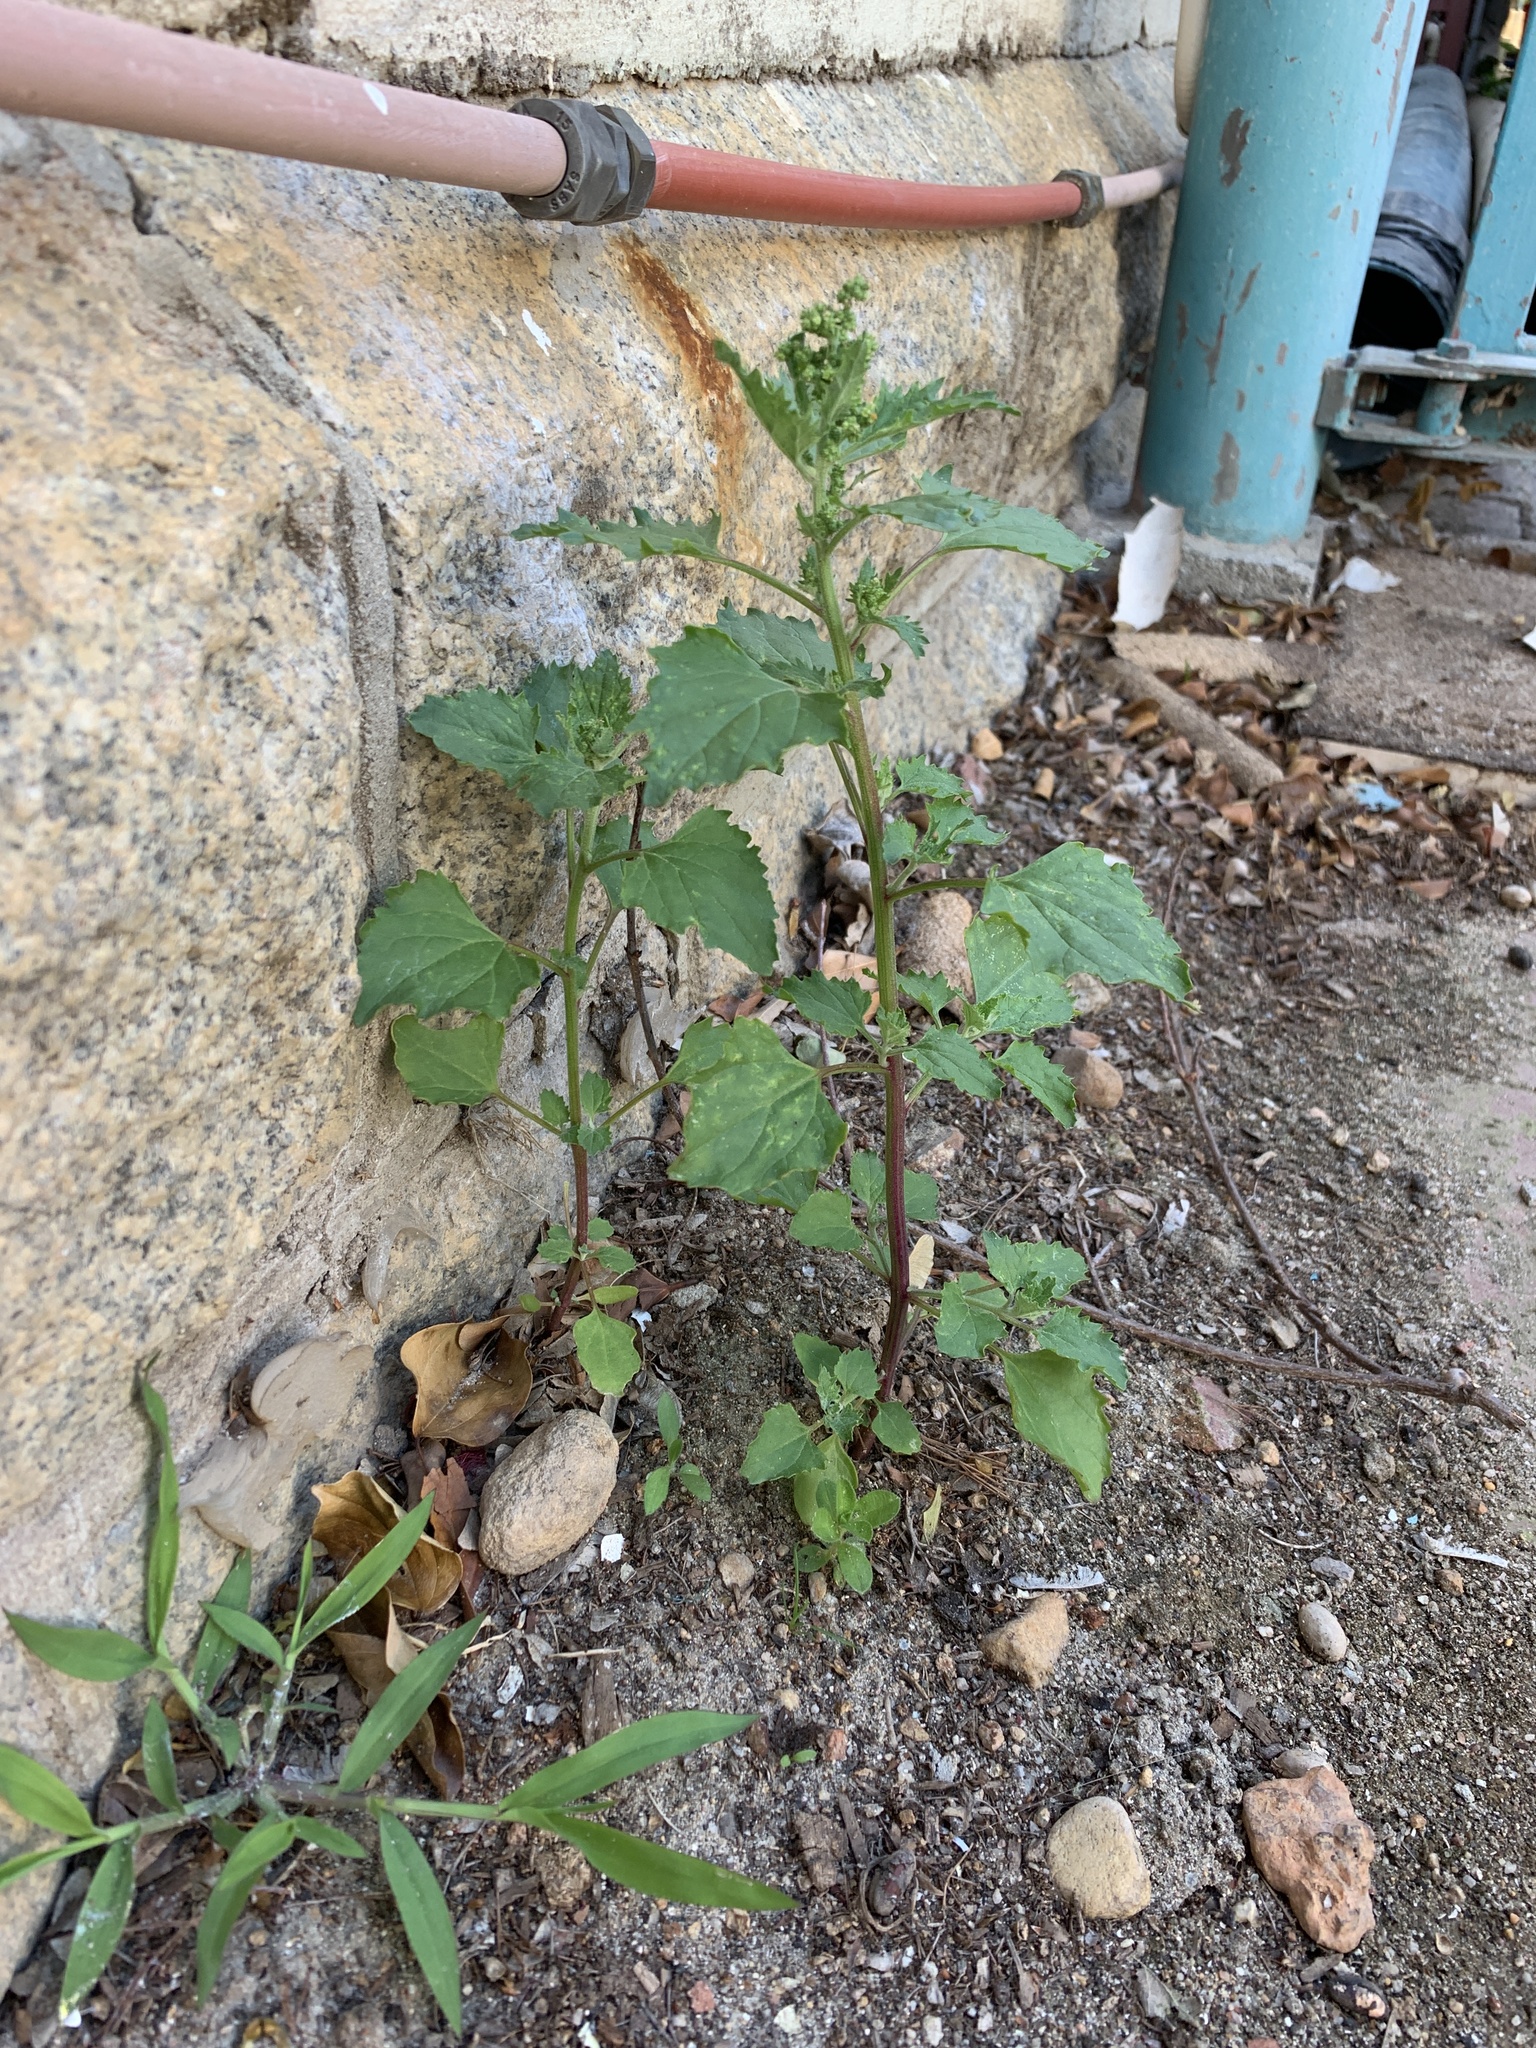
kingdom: Plantae
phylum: Tracheophyta
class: Magnoliopsida
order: Caryophyllales
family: Amaranthaceae
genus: Chenopodiastrum
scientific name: Chenopodiastrum murale
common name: Sowbane
